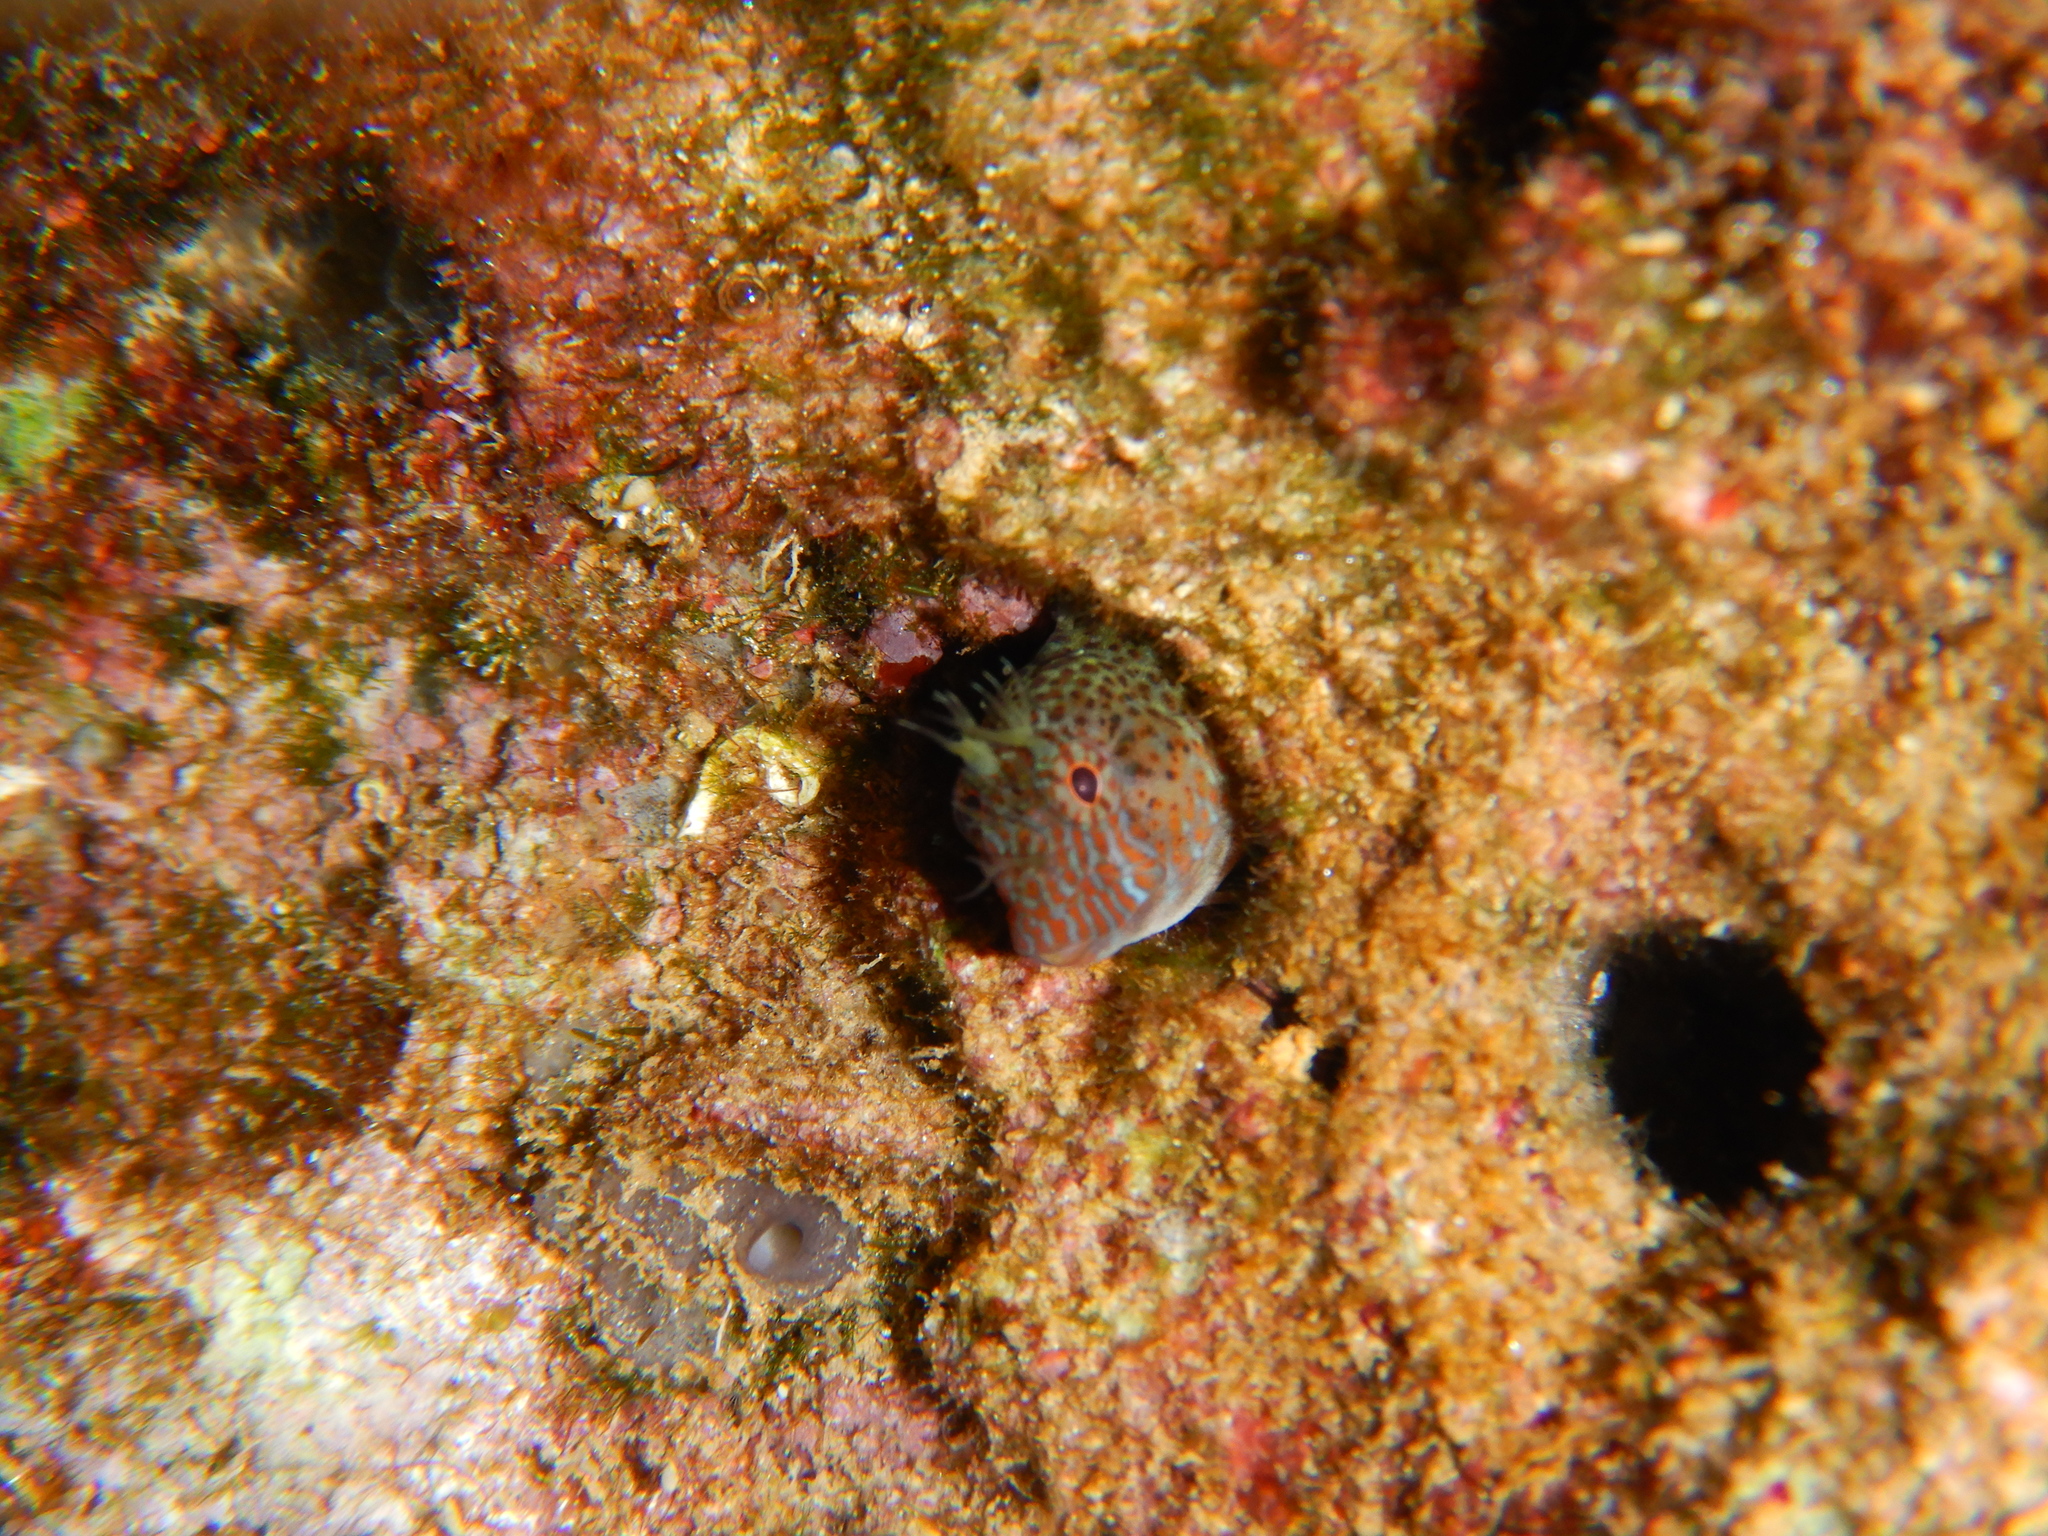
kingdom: Animalia
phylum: Chordata
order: Perciformes
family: Blenniidae
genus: Parablennius
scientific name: Parablennius zvonimiri
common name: Red blenny
